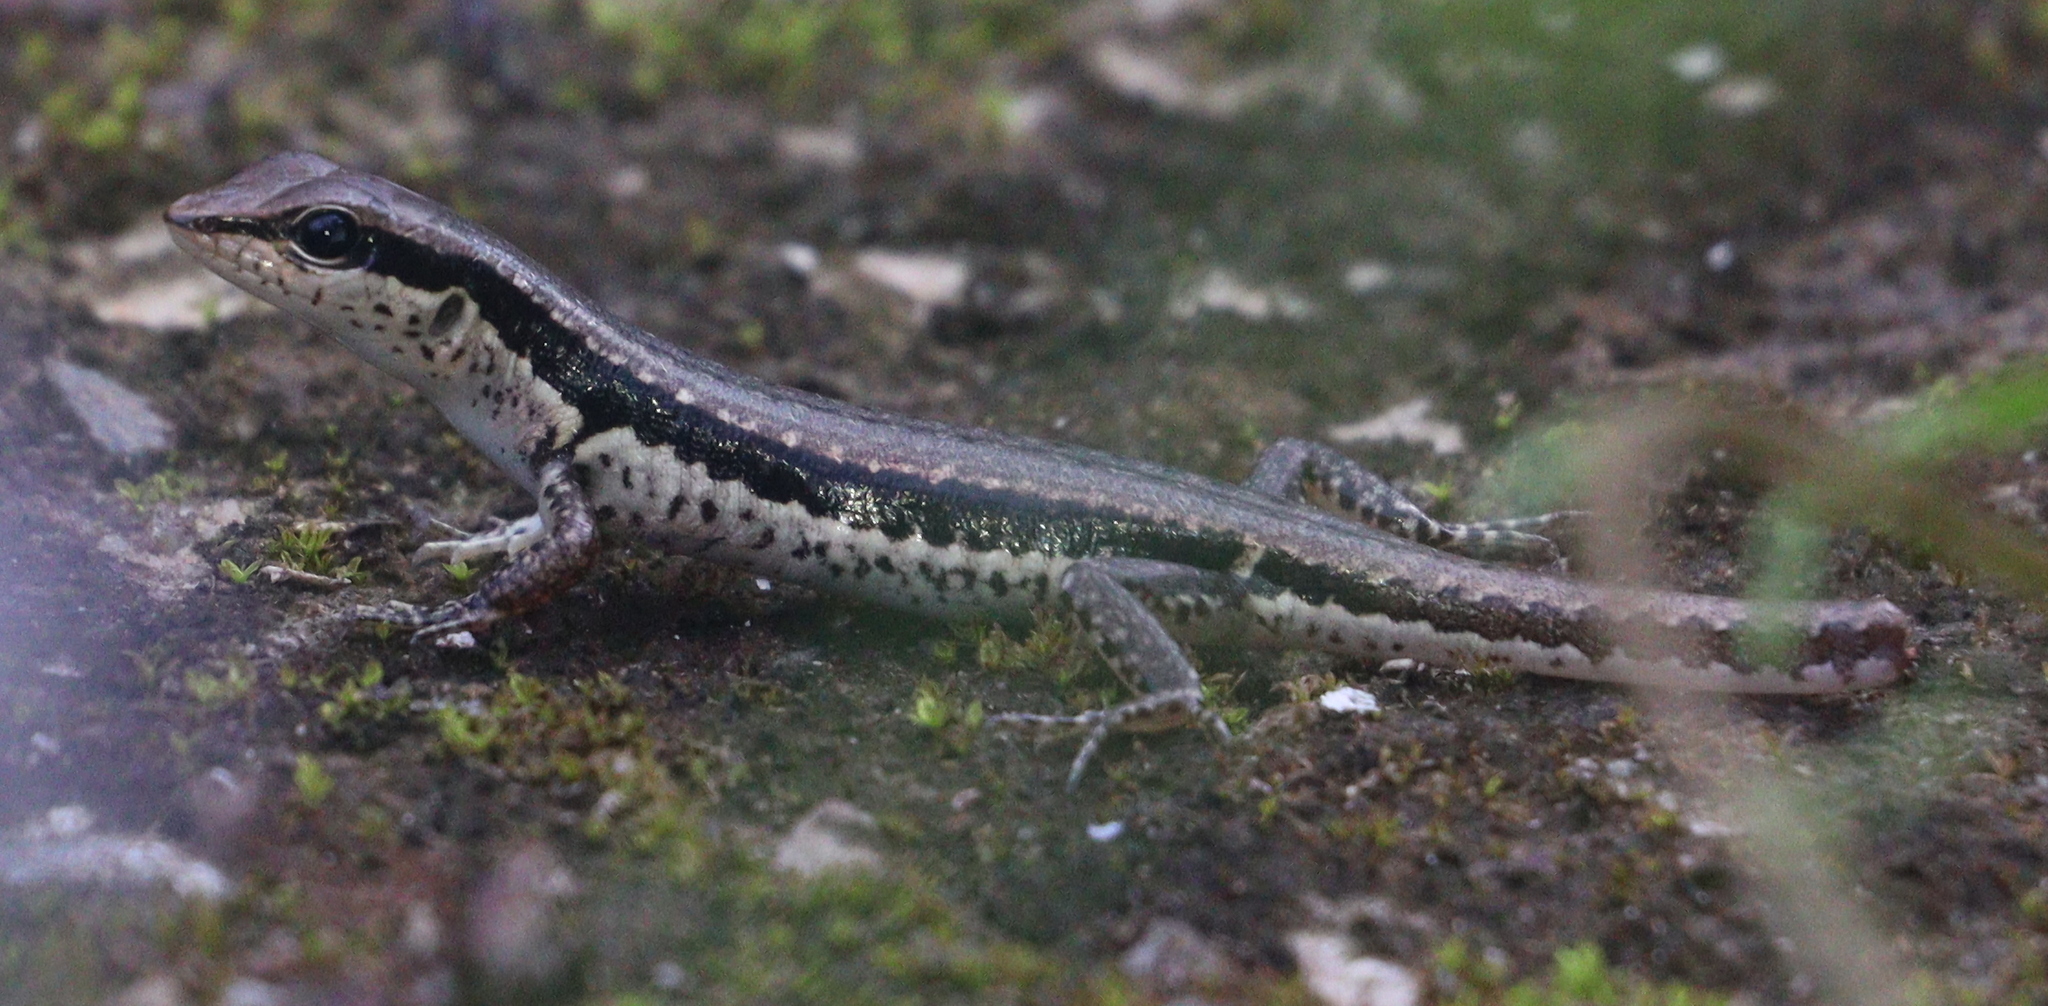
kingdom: Animalia
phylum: Chordata
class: Squamata
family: Scincidae
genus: Sphenomorphus
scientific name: Sphenomorphus maculatus
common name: Maculated forest skink
